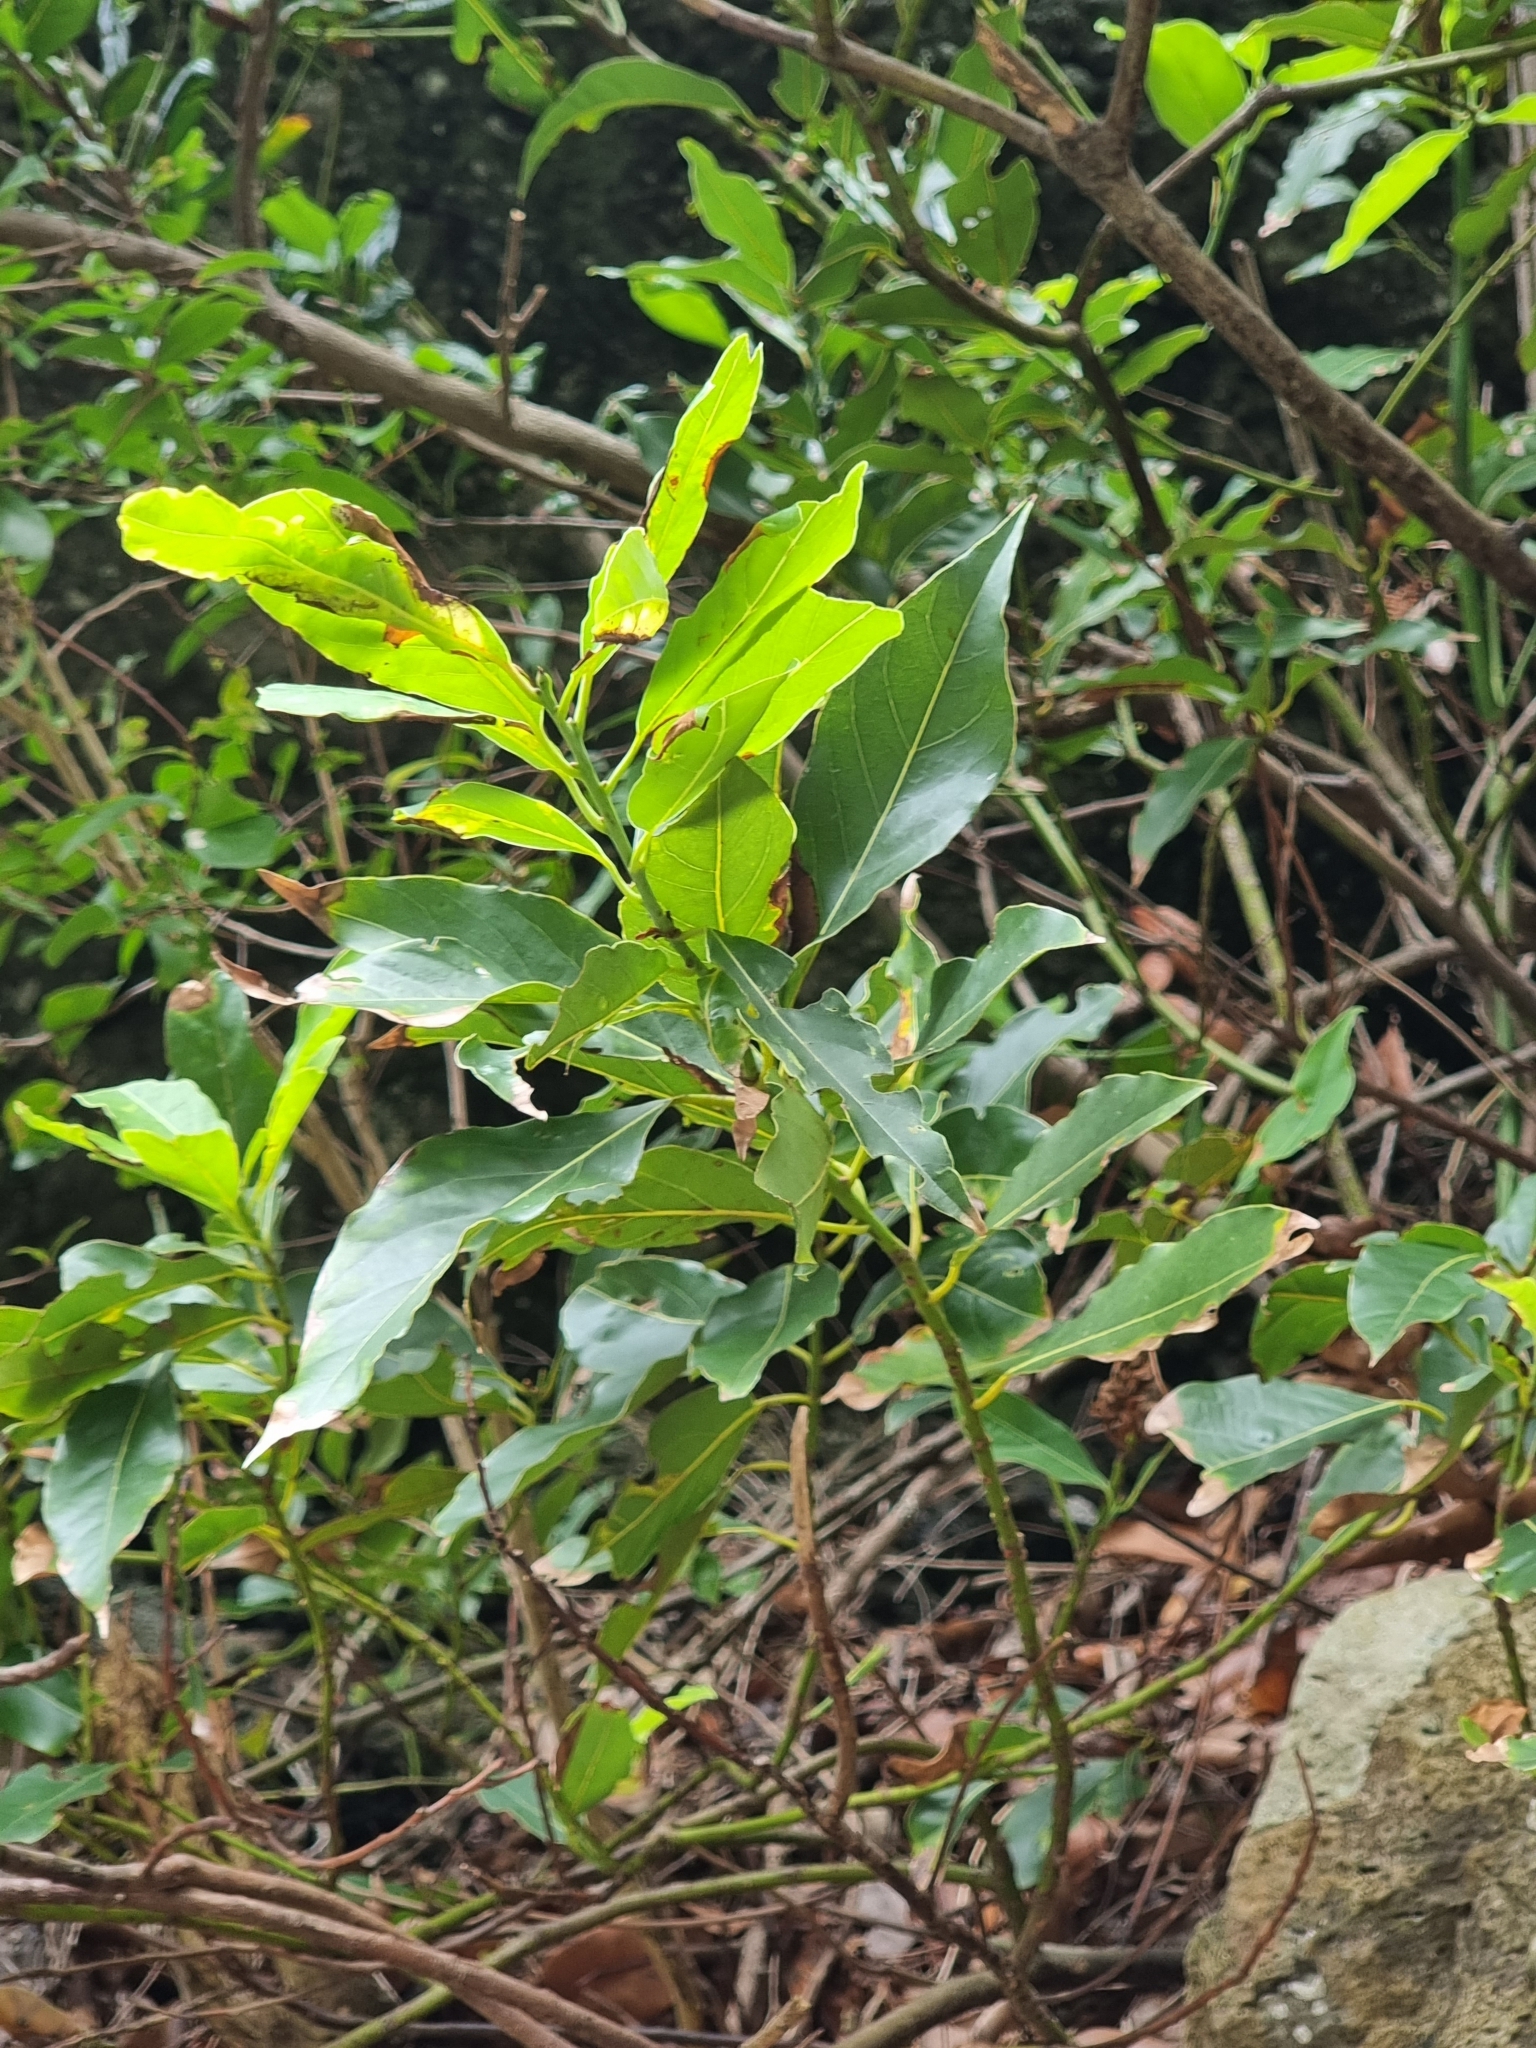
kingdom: Plantae
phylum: Tracheophyta
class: Magnoliopsida
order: Laurales
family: Lauraceae
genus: Laurus
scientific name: Laurus novocanariensis
